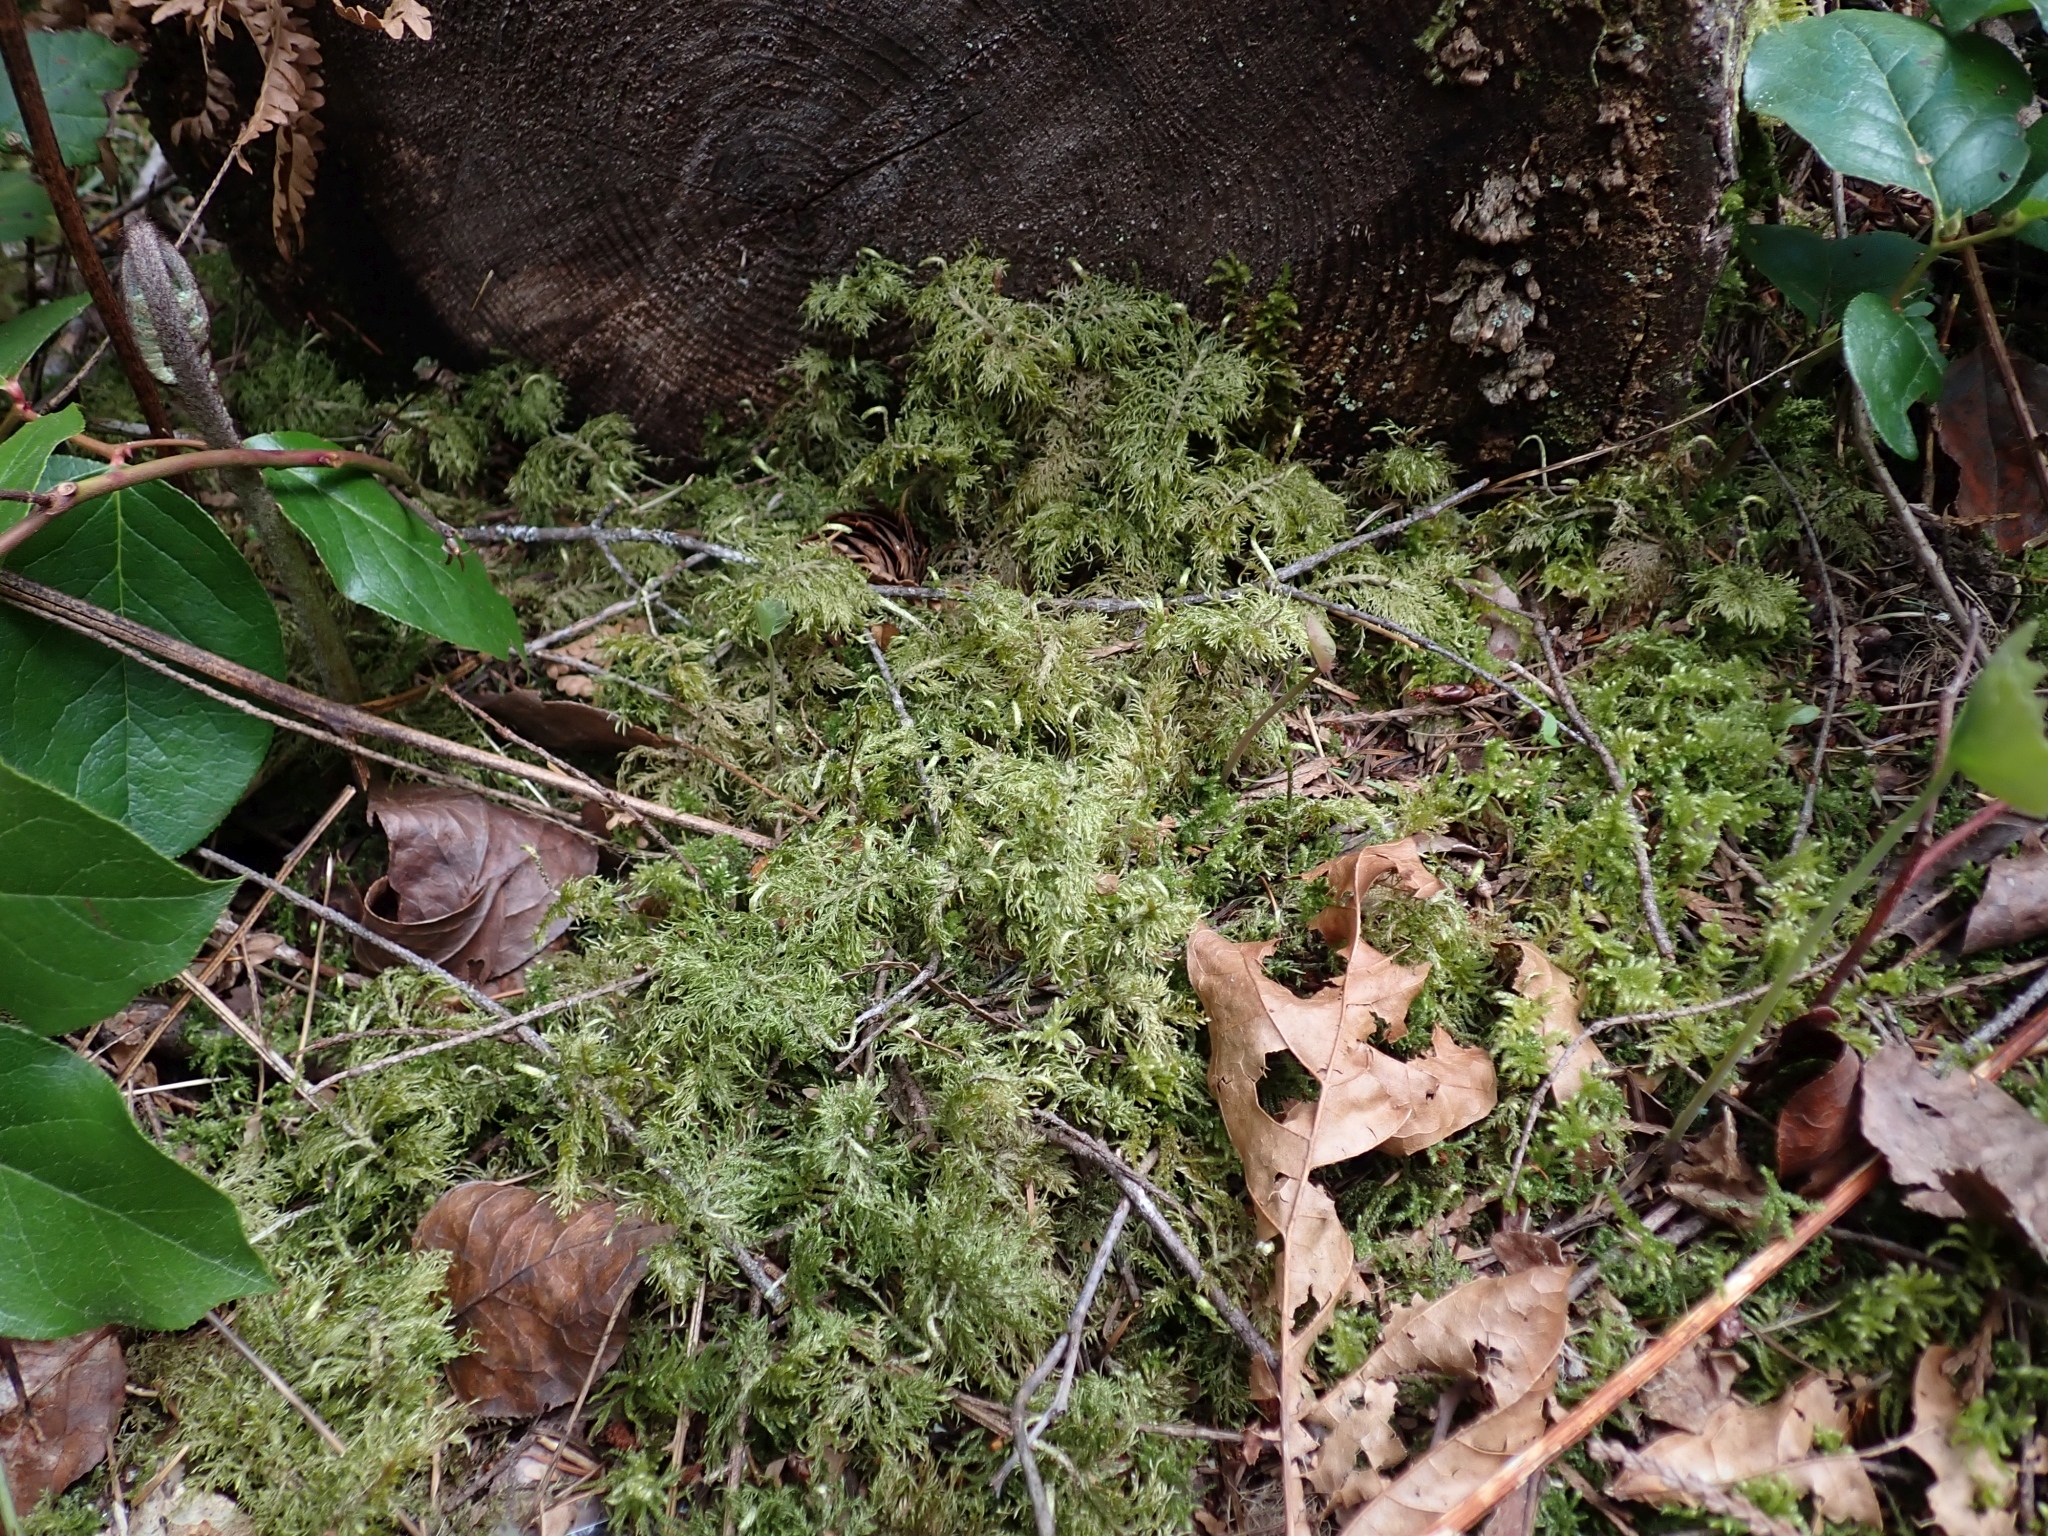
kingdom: Plantae
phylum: Bryophyta
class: Bryopsida
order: Hypnales
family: Hylocomiaceae
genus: Hylocomium
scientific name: Hylocomium splendens
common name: Stairstep moss
